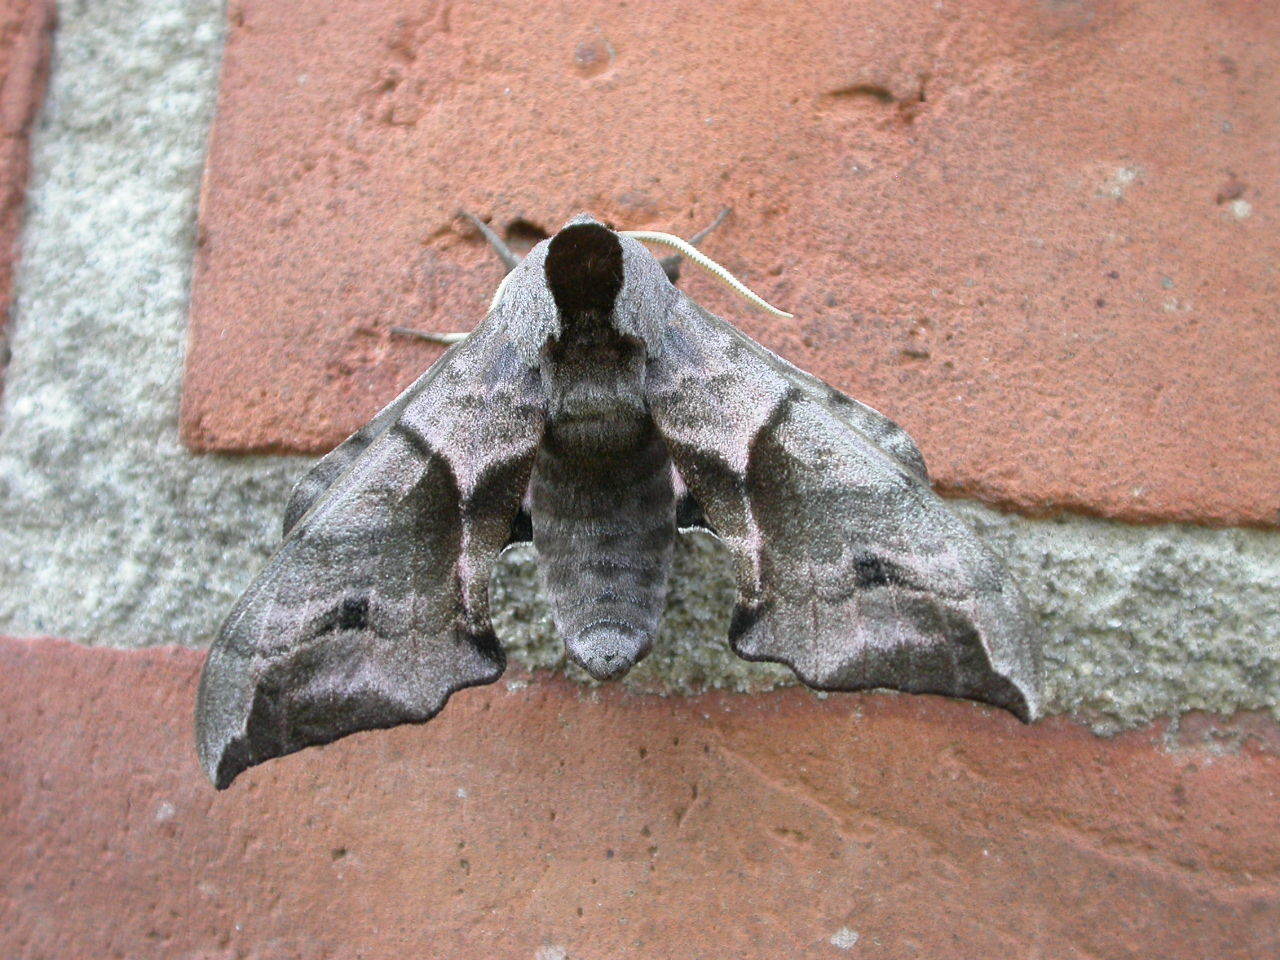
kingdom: Animalia
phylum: Arthropoda
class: Insecta
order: Lepidoptera
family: Sphingidae
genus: Smerinthus
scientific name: Smerinthus ocellata
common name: Eyed hawk-moth
